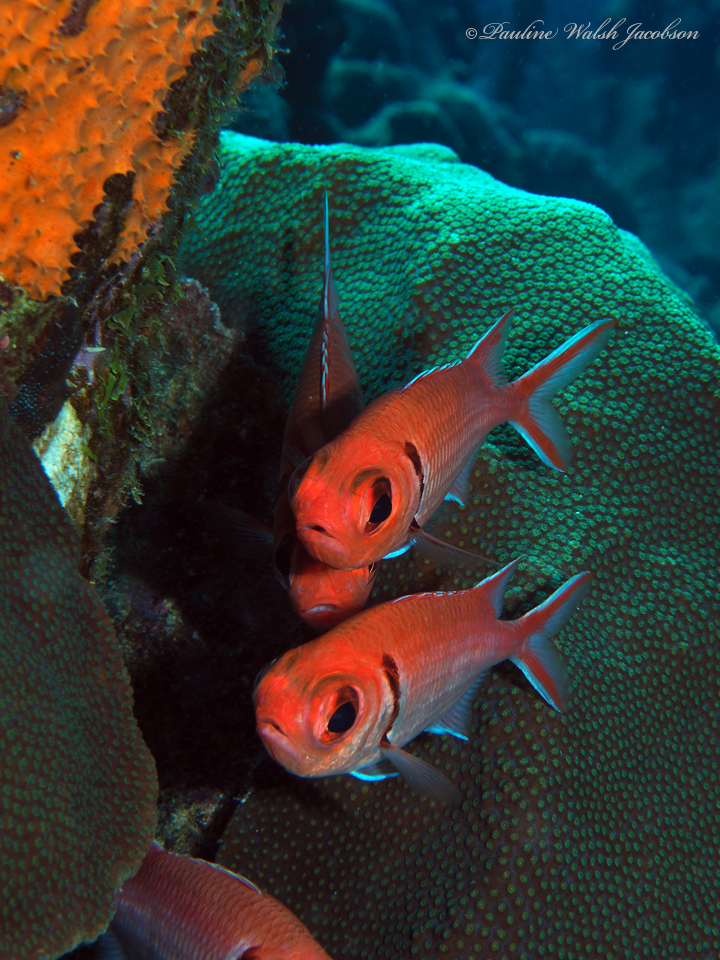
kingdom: Animalia
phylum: Chordata
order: Beryciformes
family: Holocentridae
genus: Myripristis
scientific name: Myripristis jacobus
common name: Blackbar soldierfish
